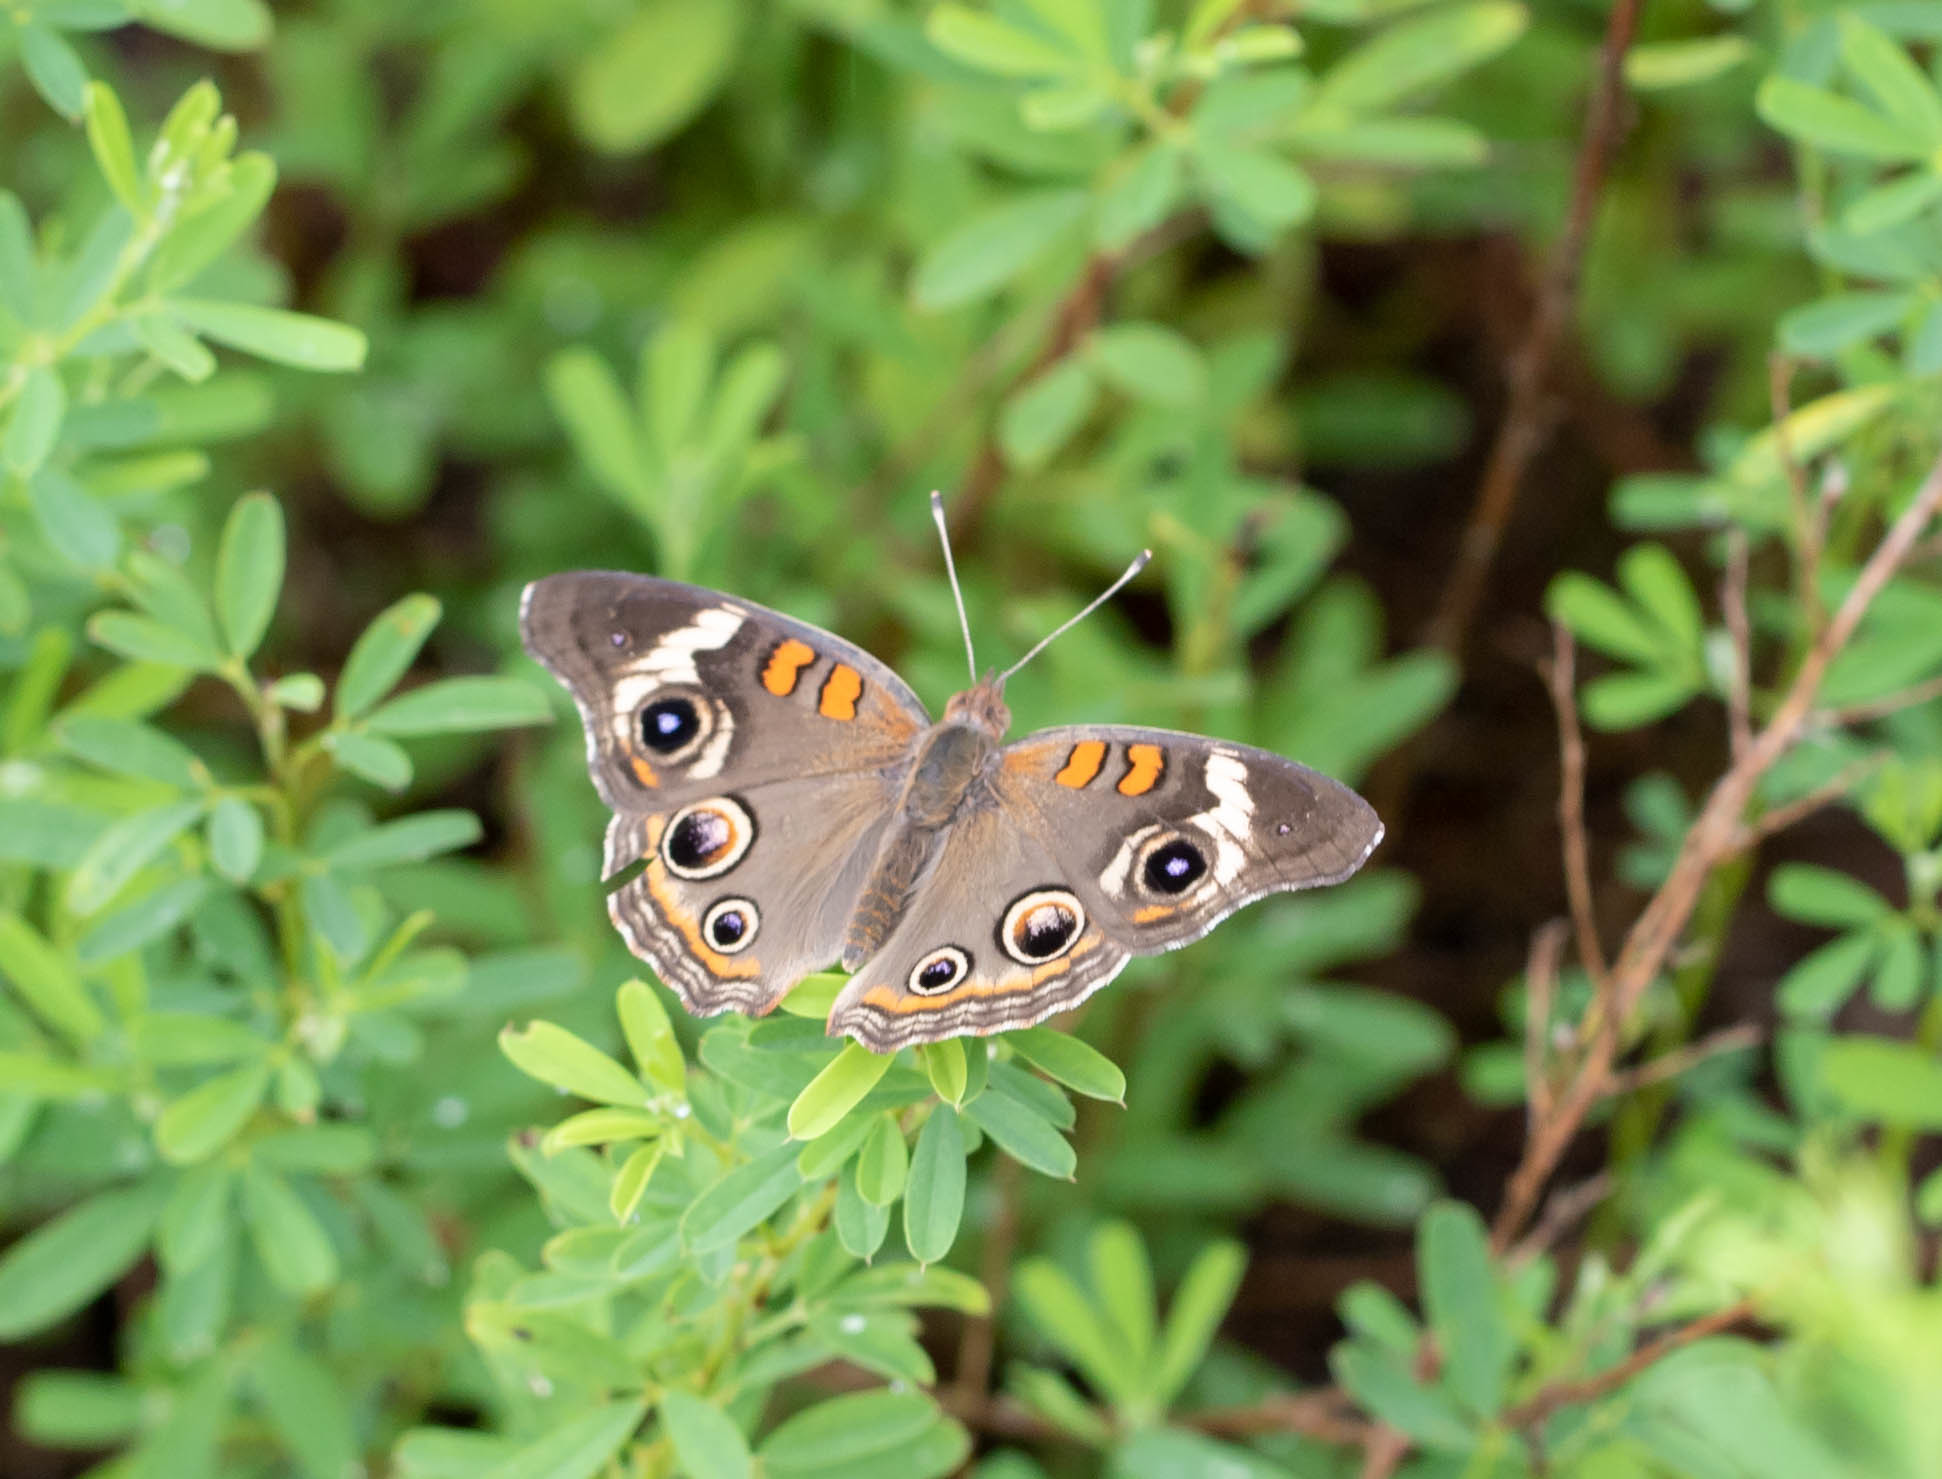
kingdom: Animalia
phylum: Arthropoda
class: Insecta
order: Lepidoptera
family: Nymphalidae
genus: Junonia
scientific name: Junonia coenia
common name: Common buckeye
